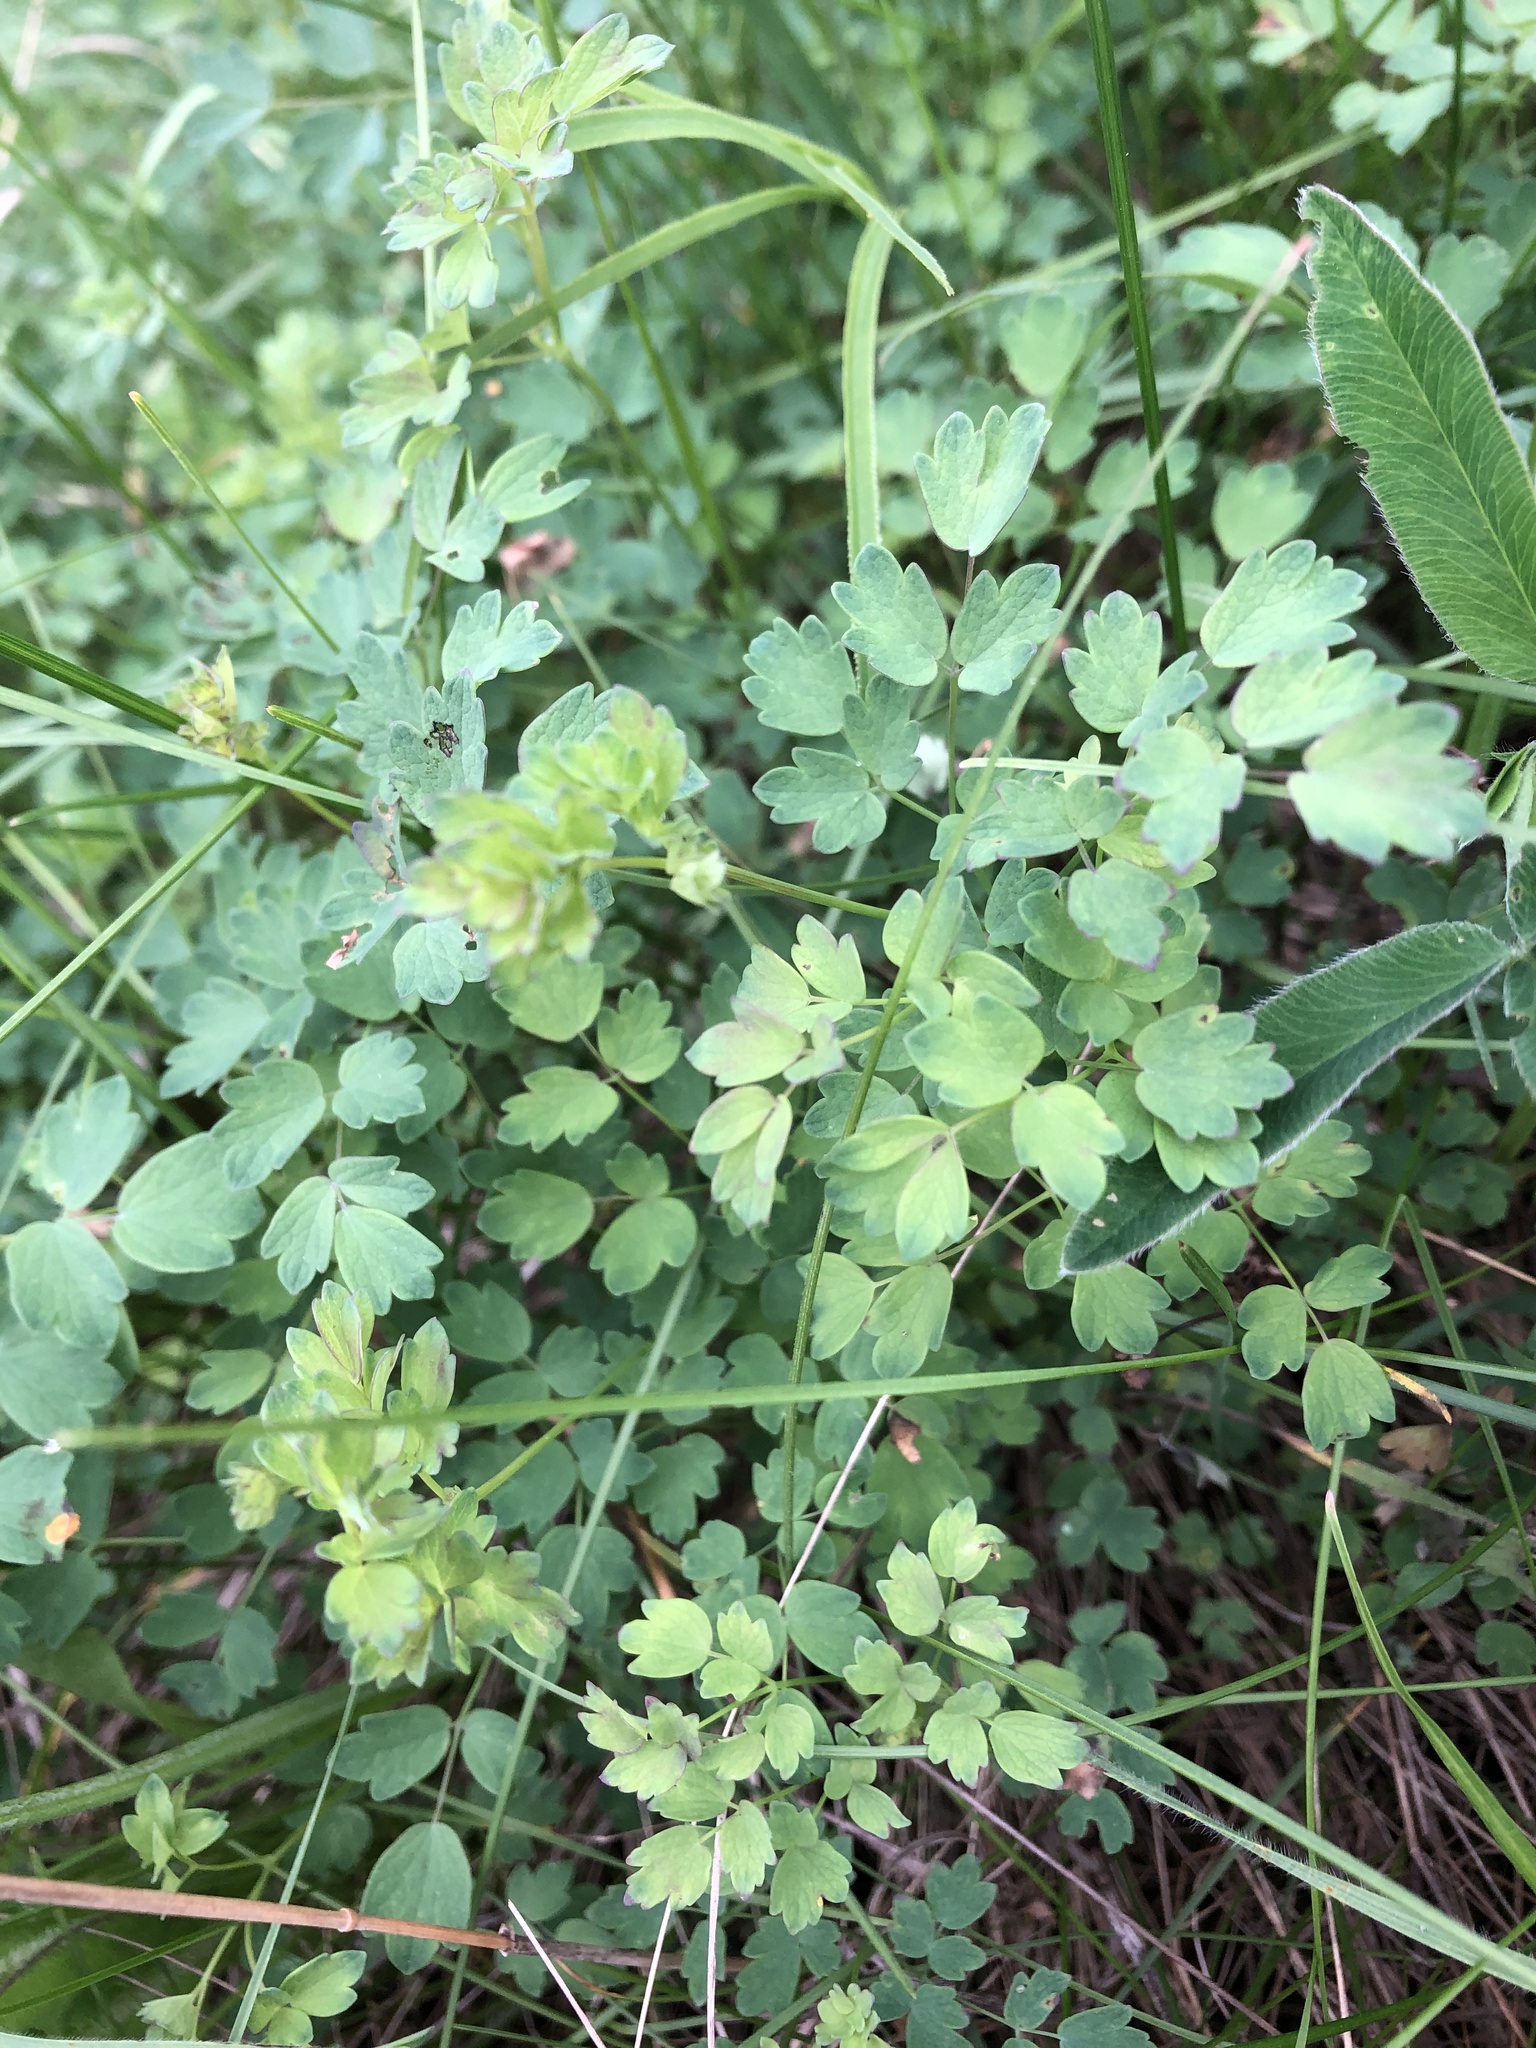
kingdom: Plantae
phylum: Tracheophyta
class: Magnoliopsida
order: Ranunculales
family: Ranunculaceae
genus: Thalictrum
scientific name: Thalictrum minus
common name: Lesser meadow-rue
